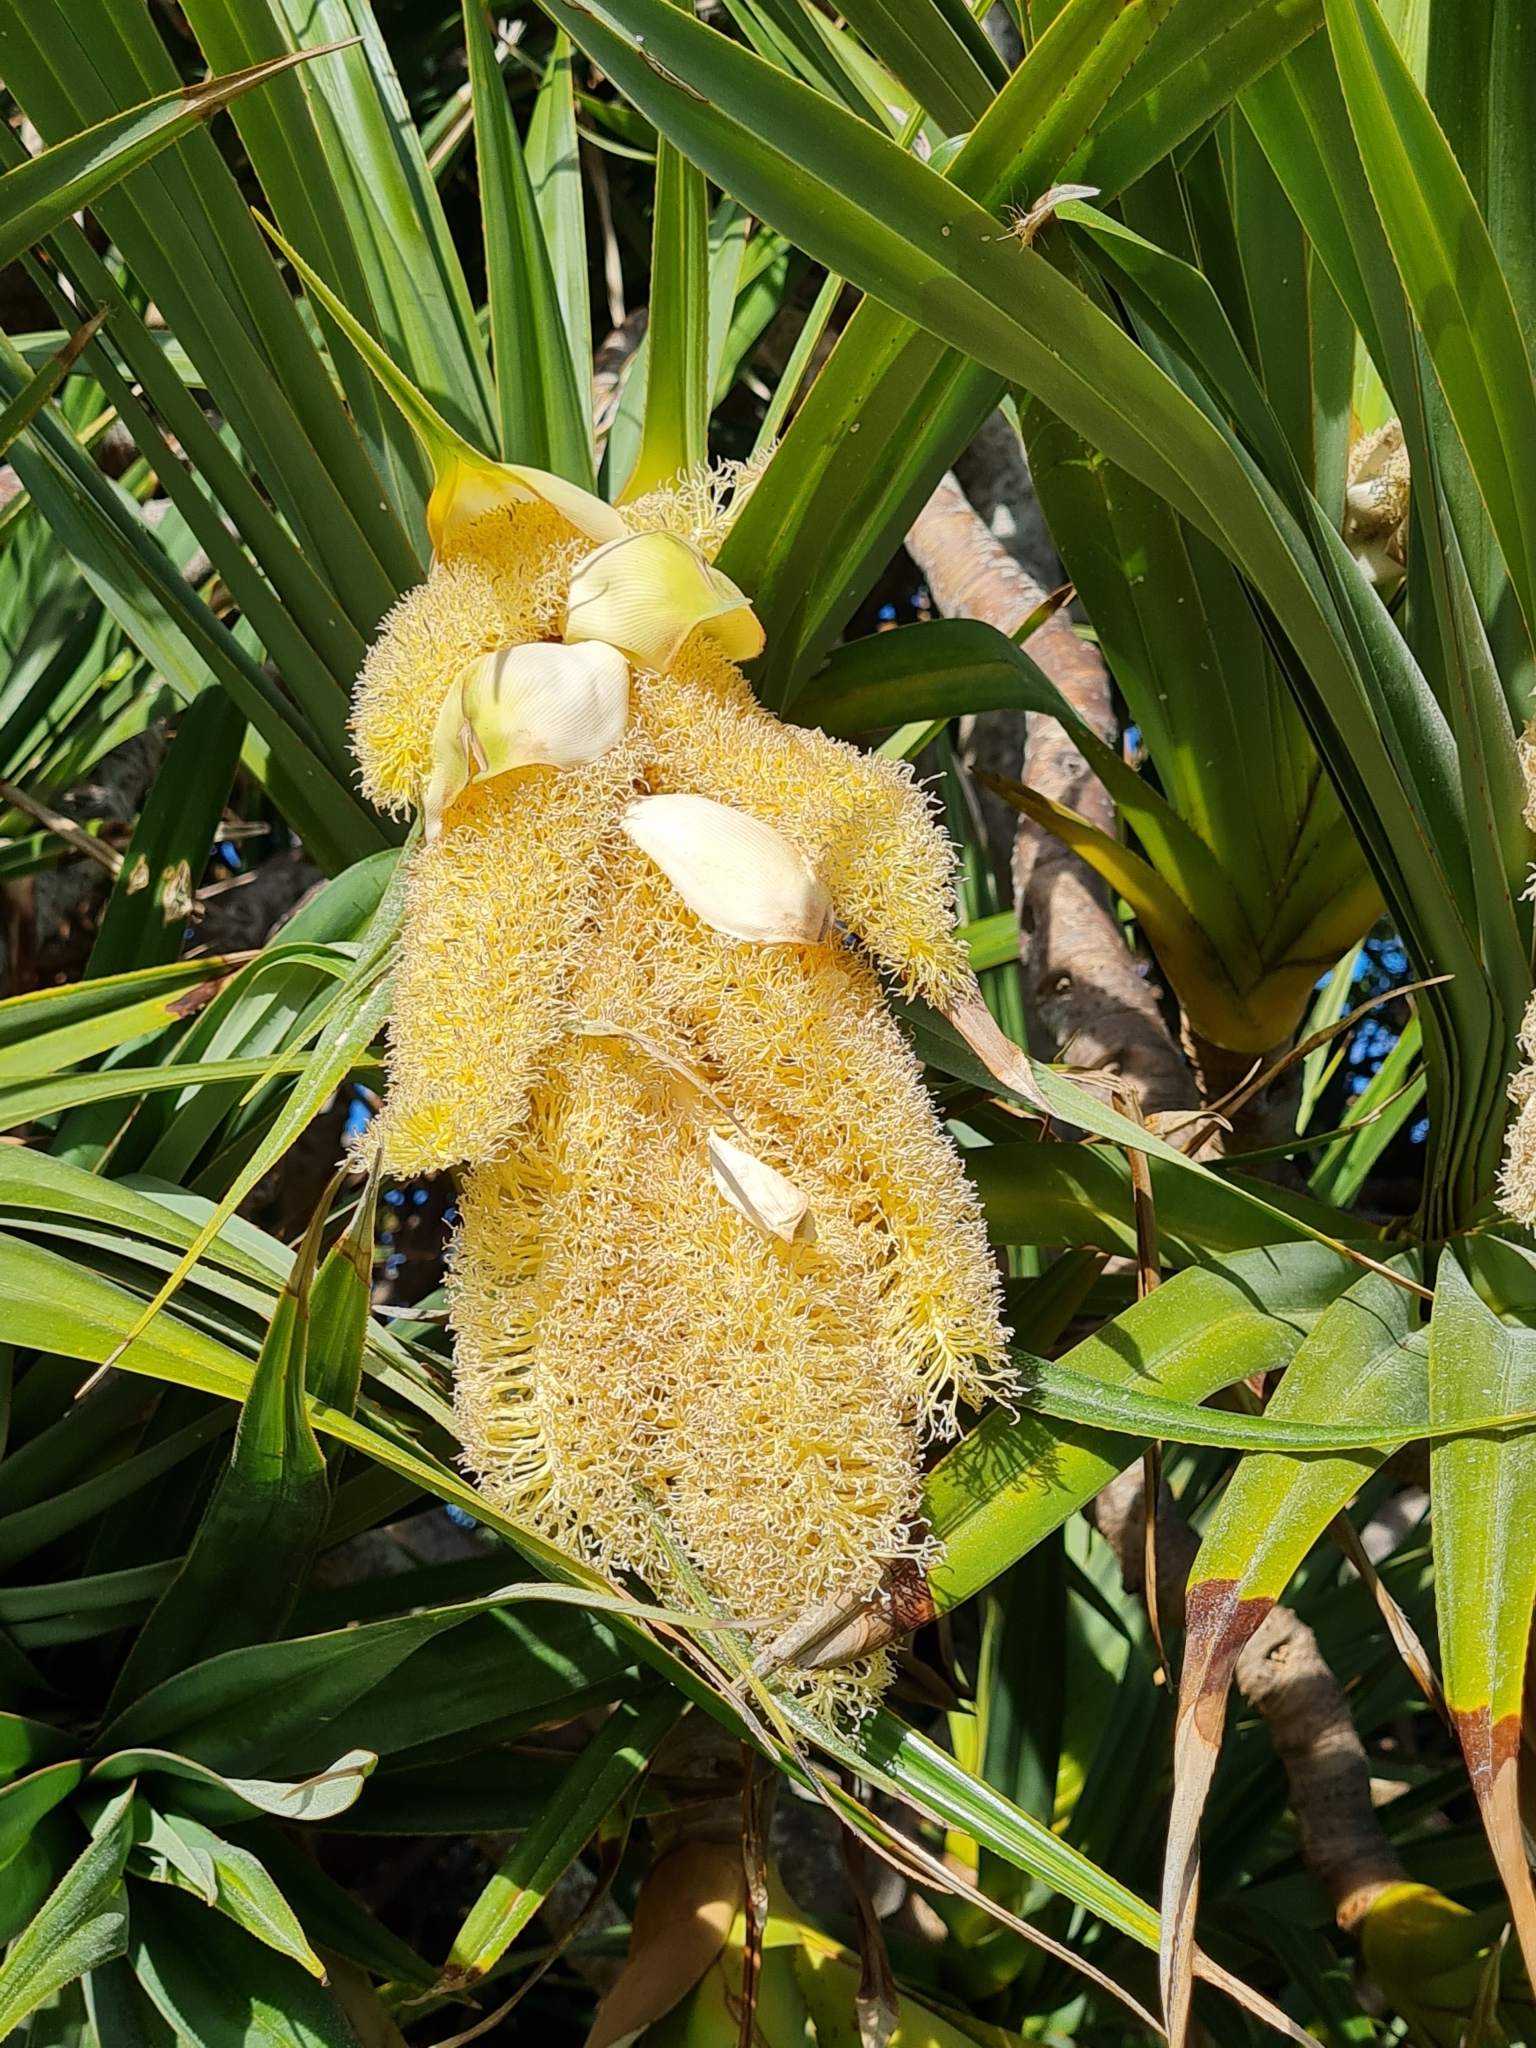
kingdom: Plantae
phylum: Tracheophyta
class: Liliopsida
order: Pandanales
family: Pandanaceae
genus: Pandanus
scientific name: Pandanus utilis
